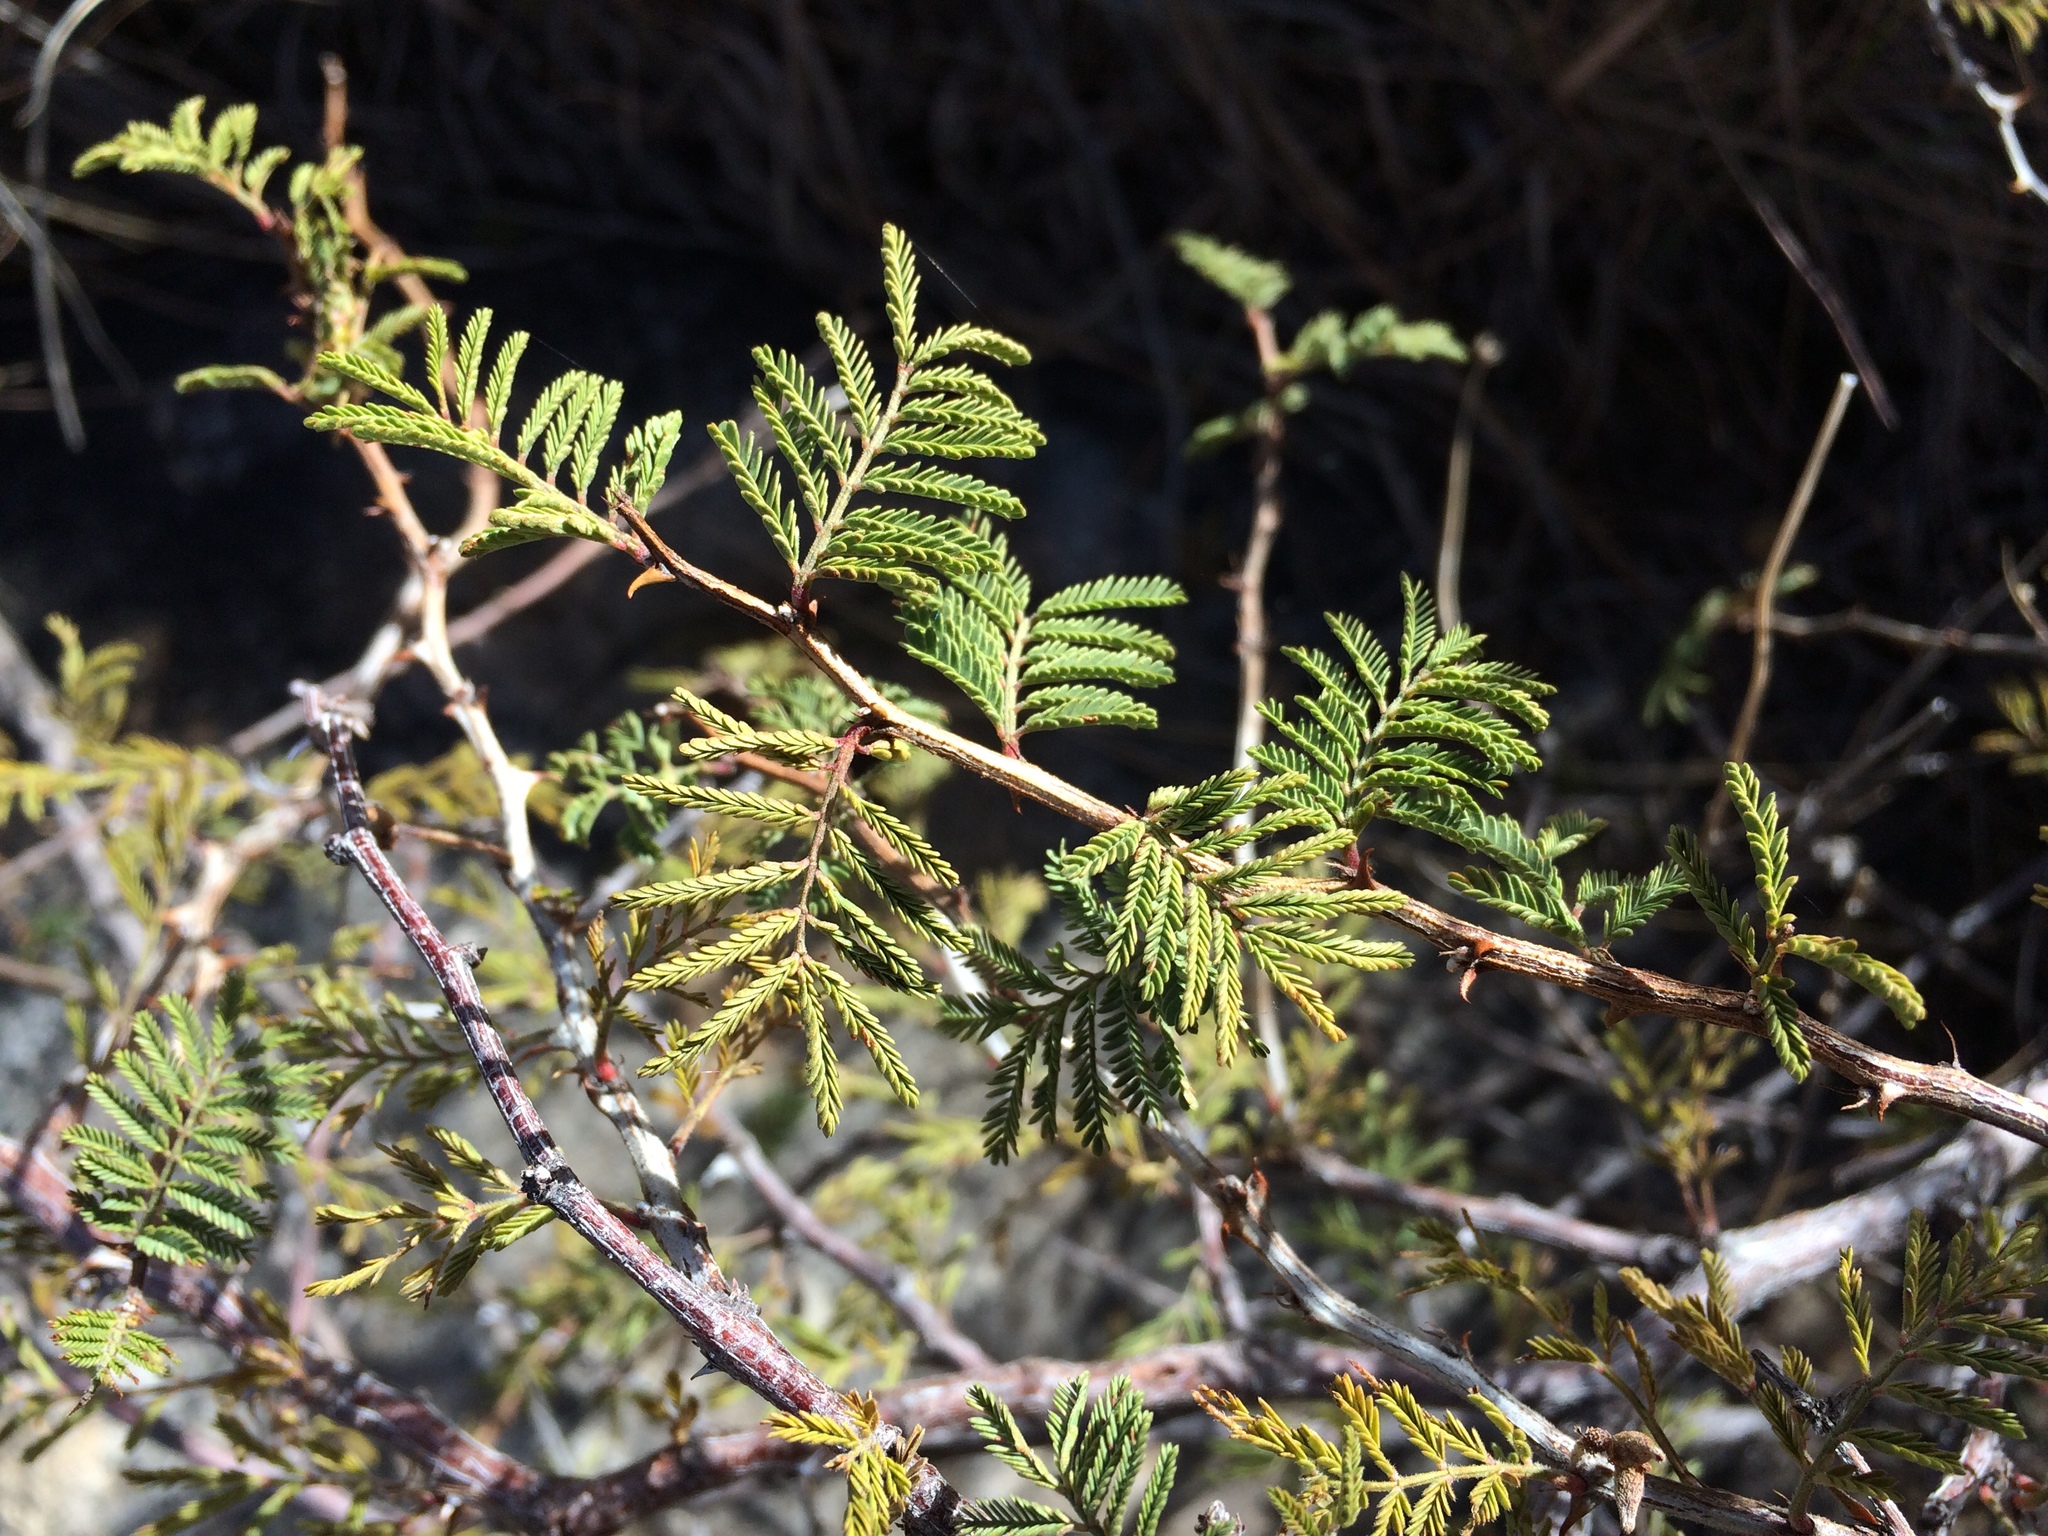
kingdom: Plantae
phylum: Tracheophyta
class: Magnoliopsida
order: Fabales
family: Fabaceae
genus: Mimosa
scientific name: Mimosa aculeaticarpa
